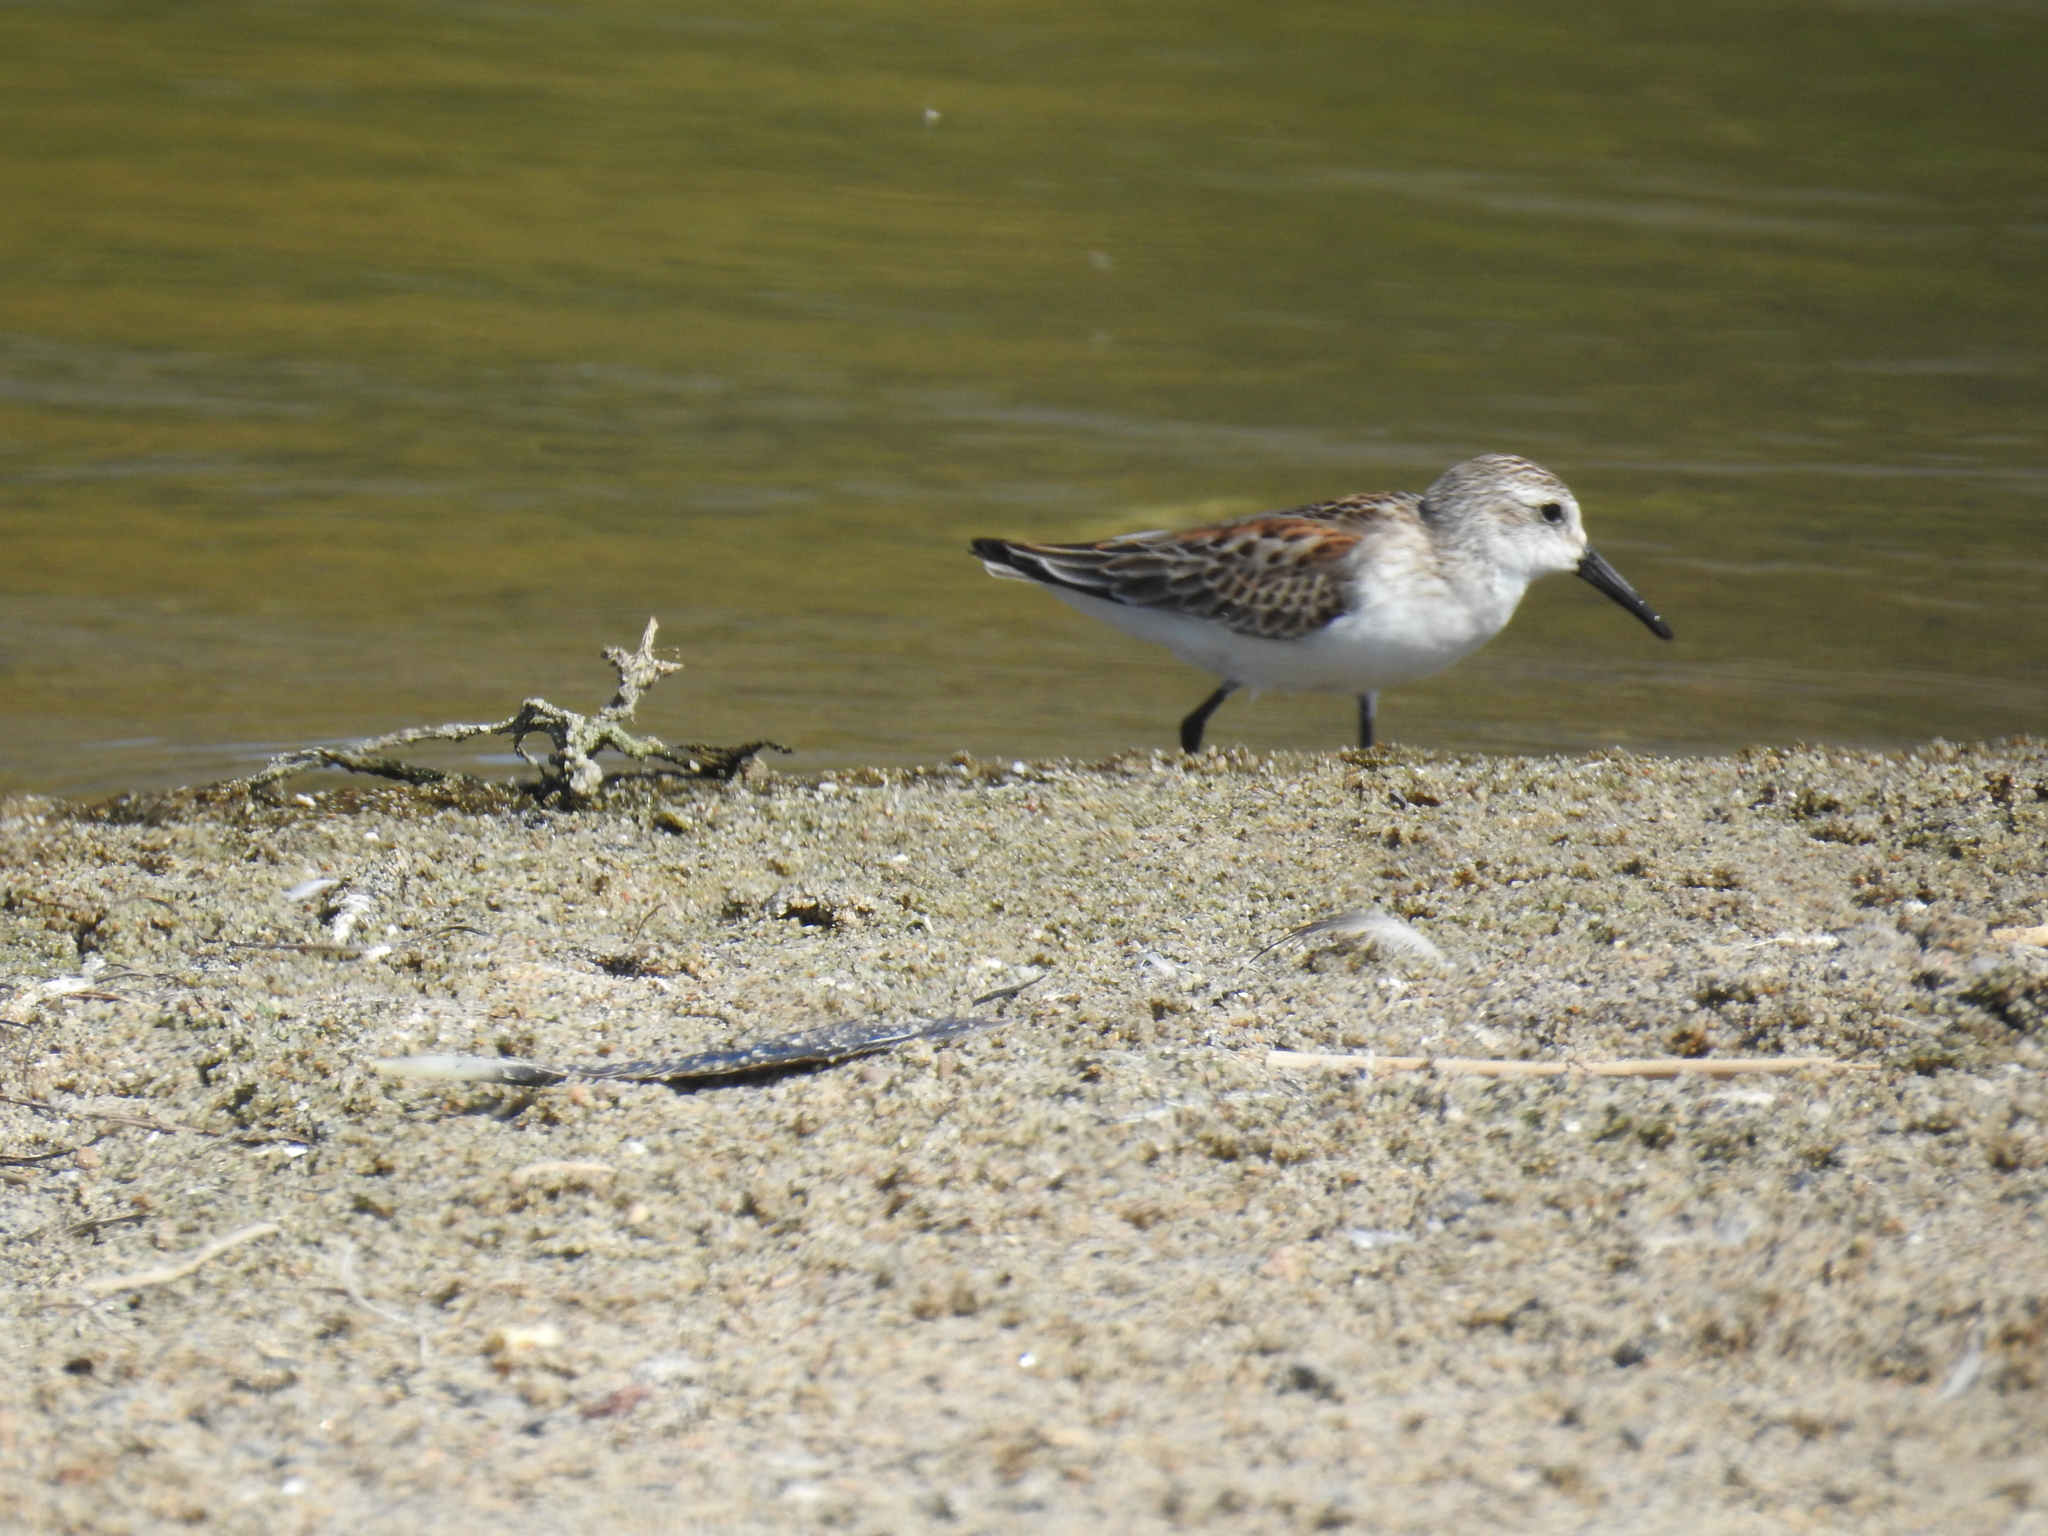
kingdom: Animalia
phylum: Chordata
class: Aves
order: Charadriiformes
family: Scolopacidae
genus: Calidris
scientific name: Calidris mauri
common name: Western sandpiper
